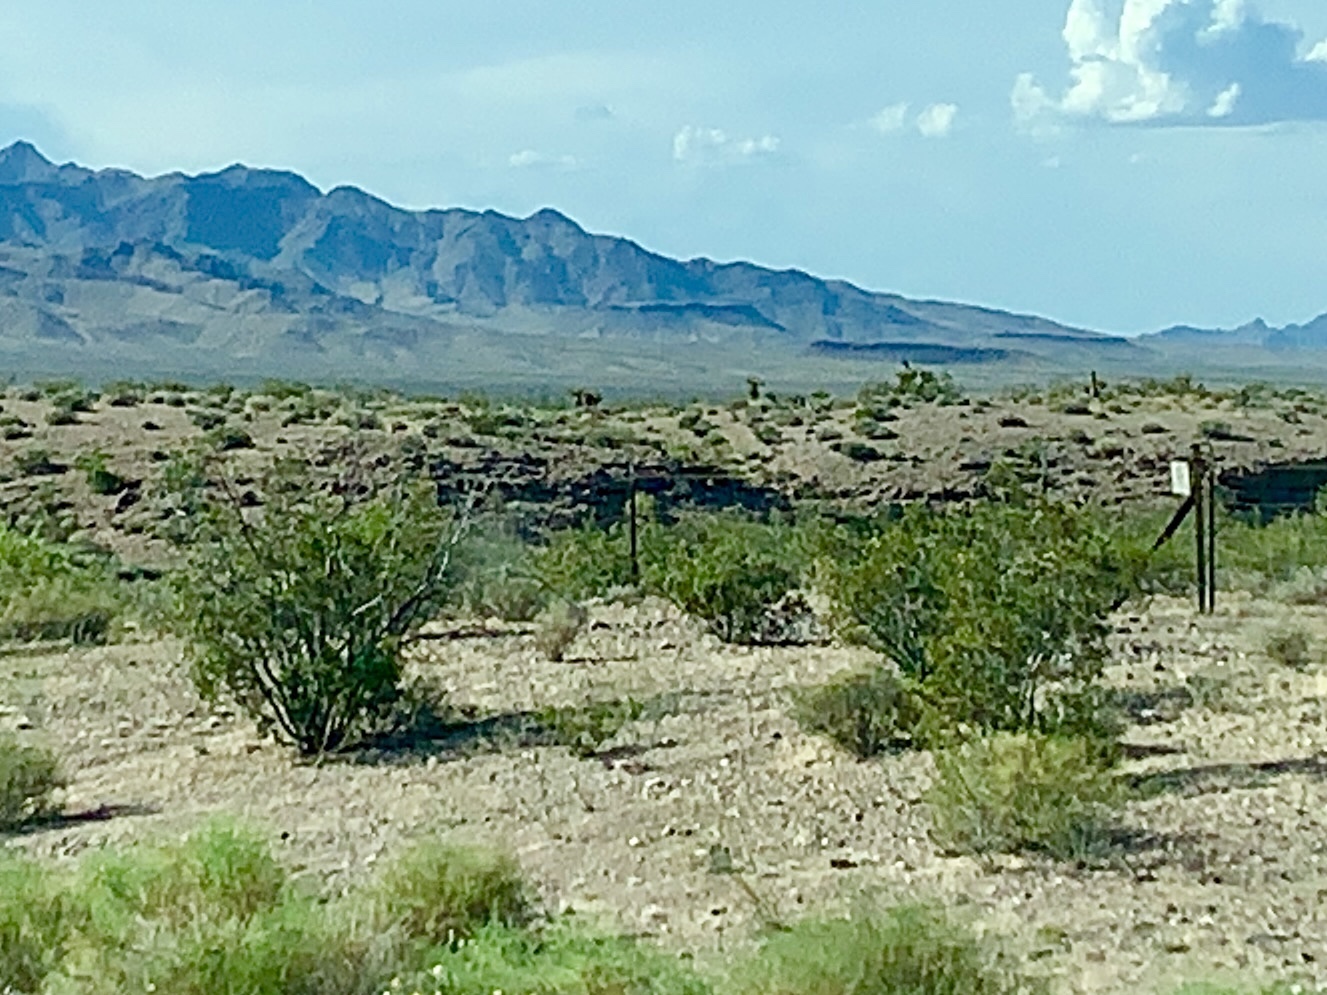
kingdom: Plantae
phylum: Tracheophyta
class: Magnoliopsida
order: Zygophyllales
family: Zygophyllaceae
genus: Larrea
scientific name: Larrea tridentata
